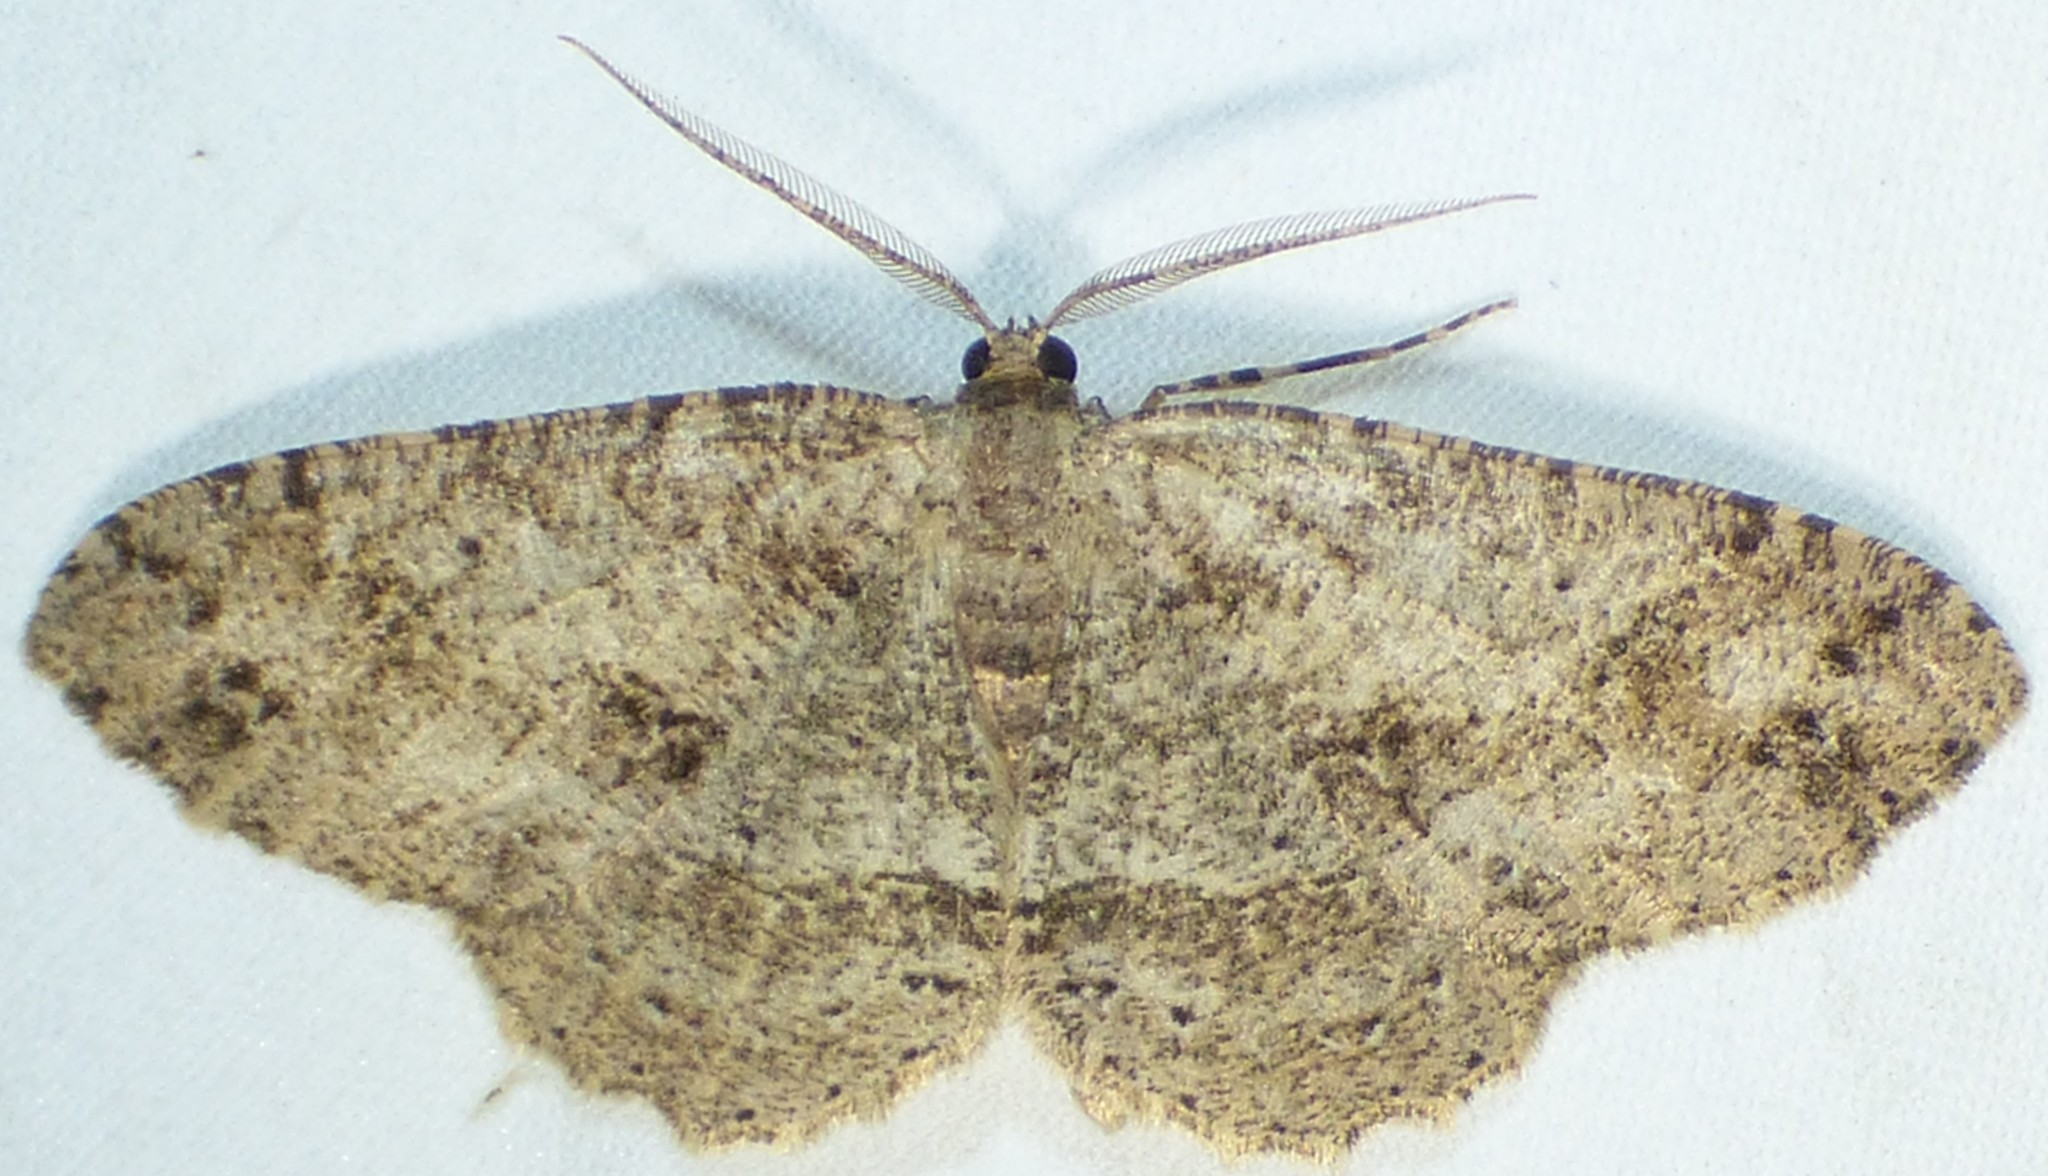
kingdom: Animalia
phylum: Arthropoda
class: Insecta
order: Lepidoptera
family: Geometridae
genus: Melanolophia
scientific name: Melanolophia canadaria
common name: Canadian melanolophia
